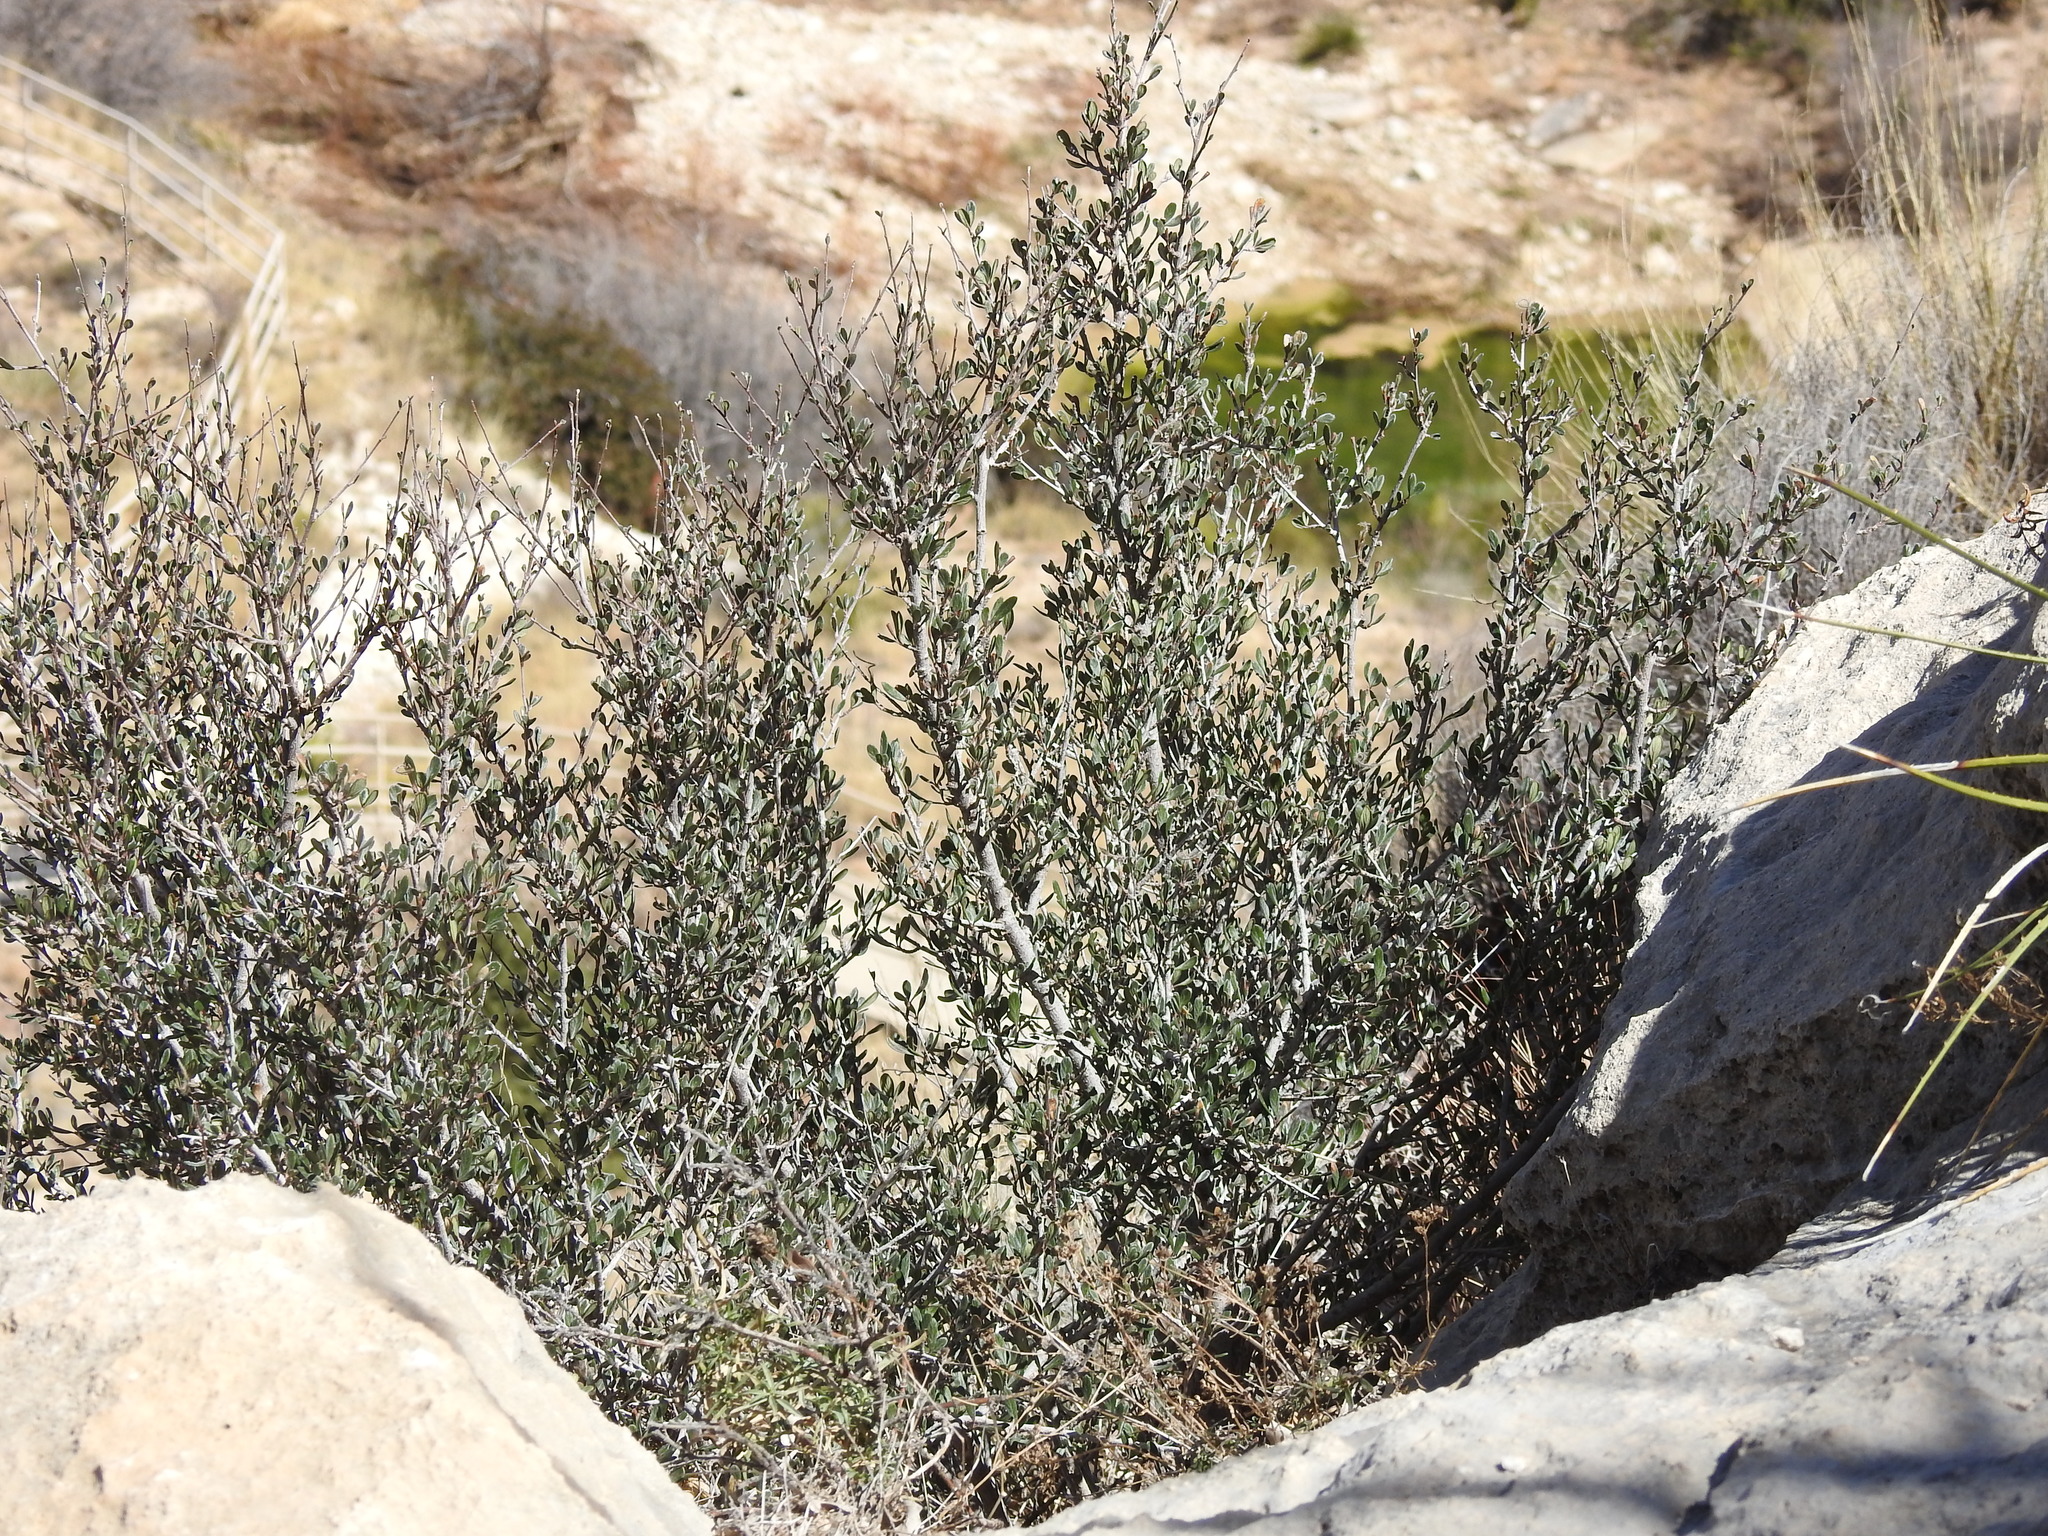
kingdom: Plantae
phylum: Tracheophyta
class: Magnoliopsida
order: Rosales
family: Rosaceae
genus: Cercocarpus
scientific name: Cercocarpus breviflorus
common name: Wright's mountain-mahogany
